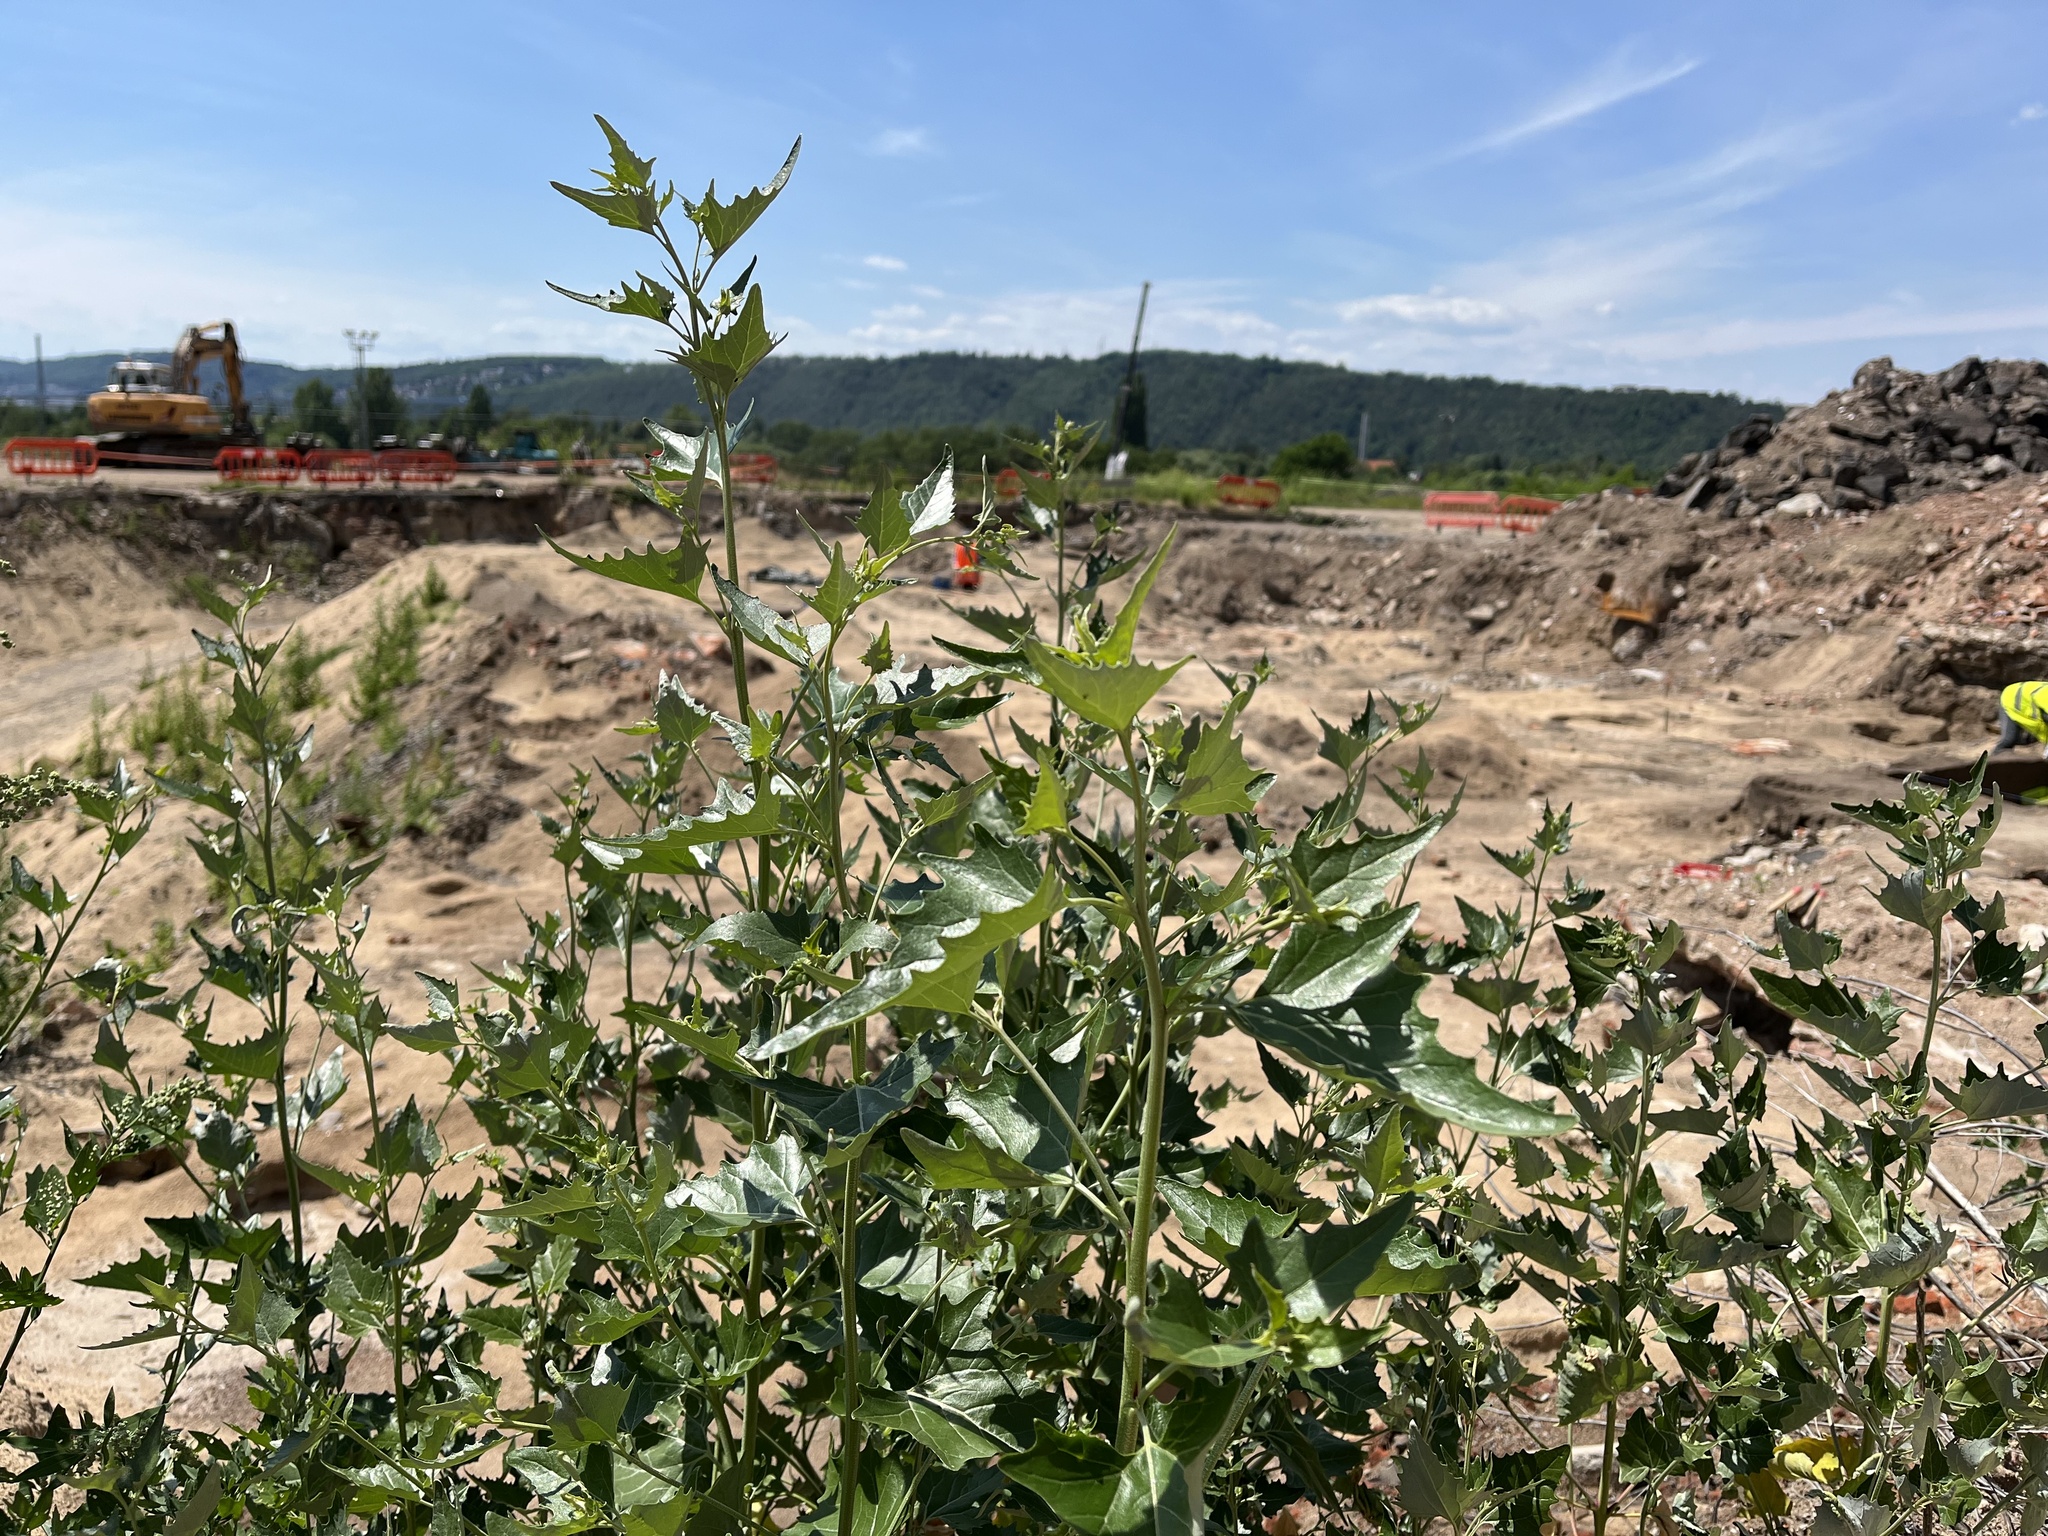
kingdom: Plantae
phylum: Tracheophyta
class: Magnoliopsida
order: Caryophyllales
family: Amaranthaceae
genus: Atriplex
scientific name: Atriplex sagittata
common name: Purple orache
